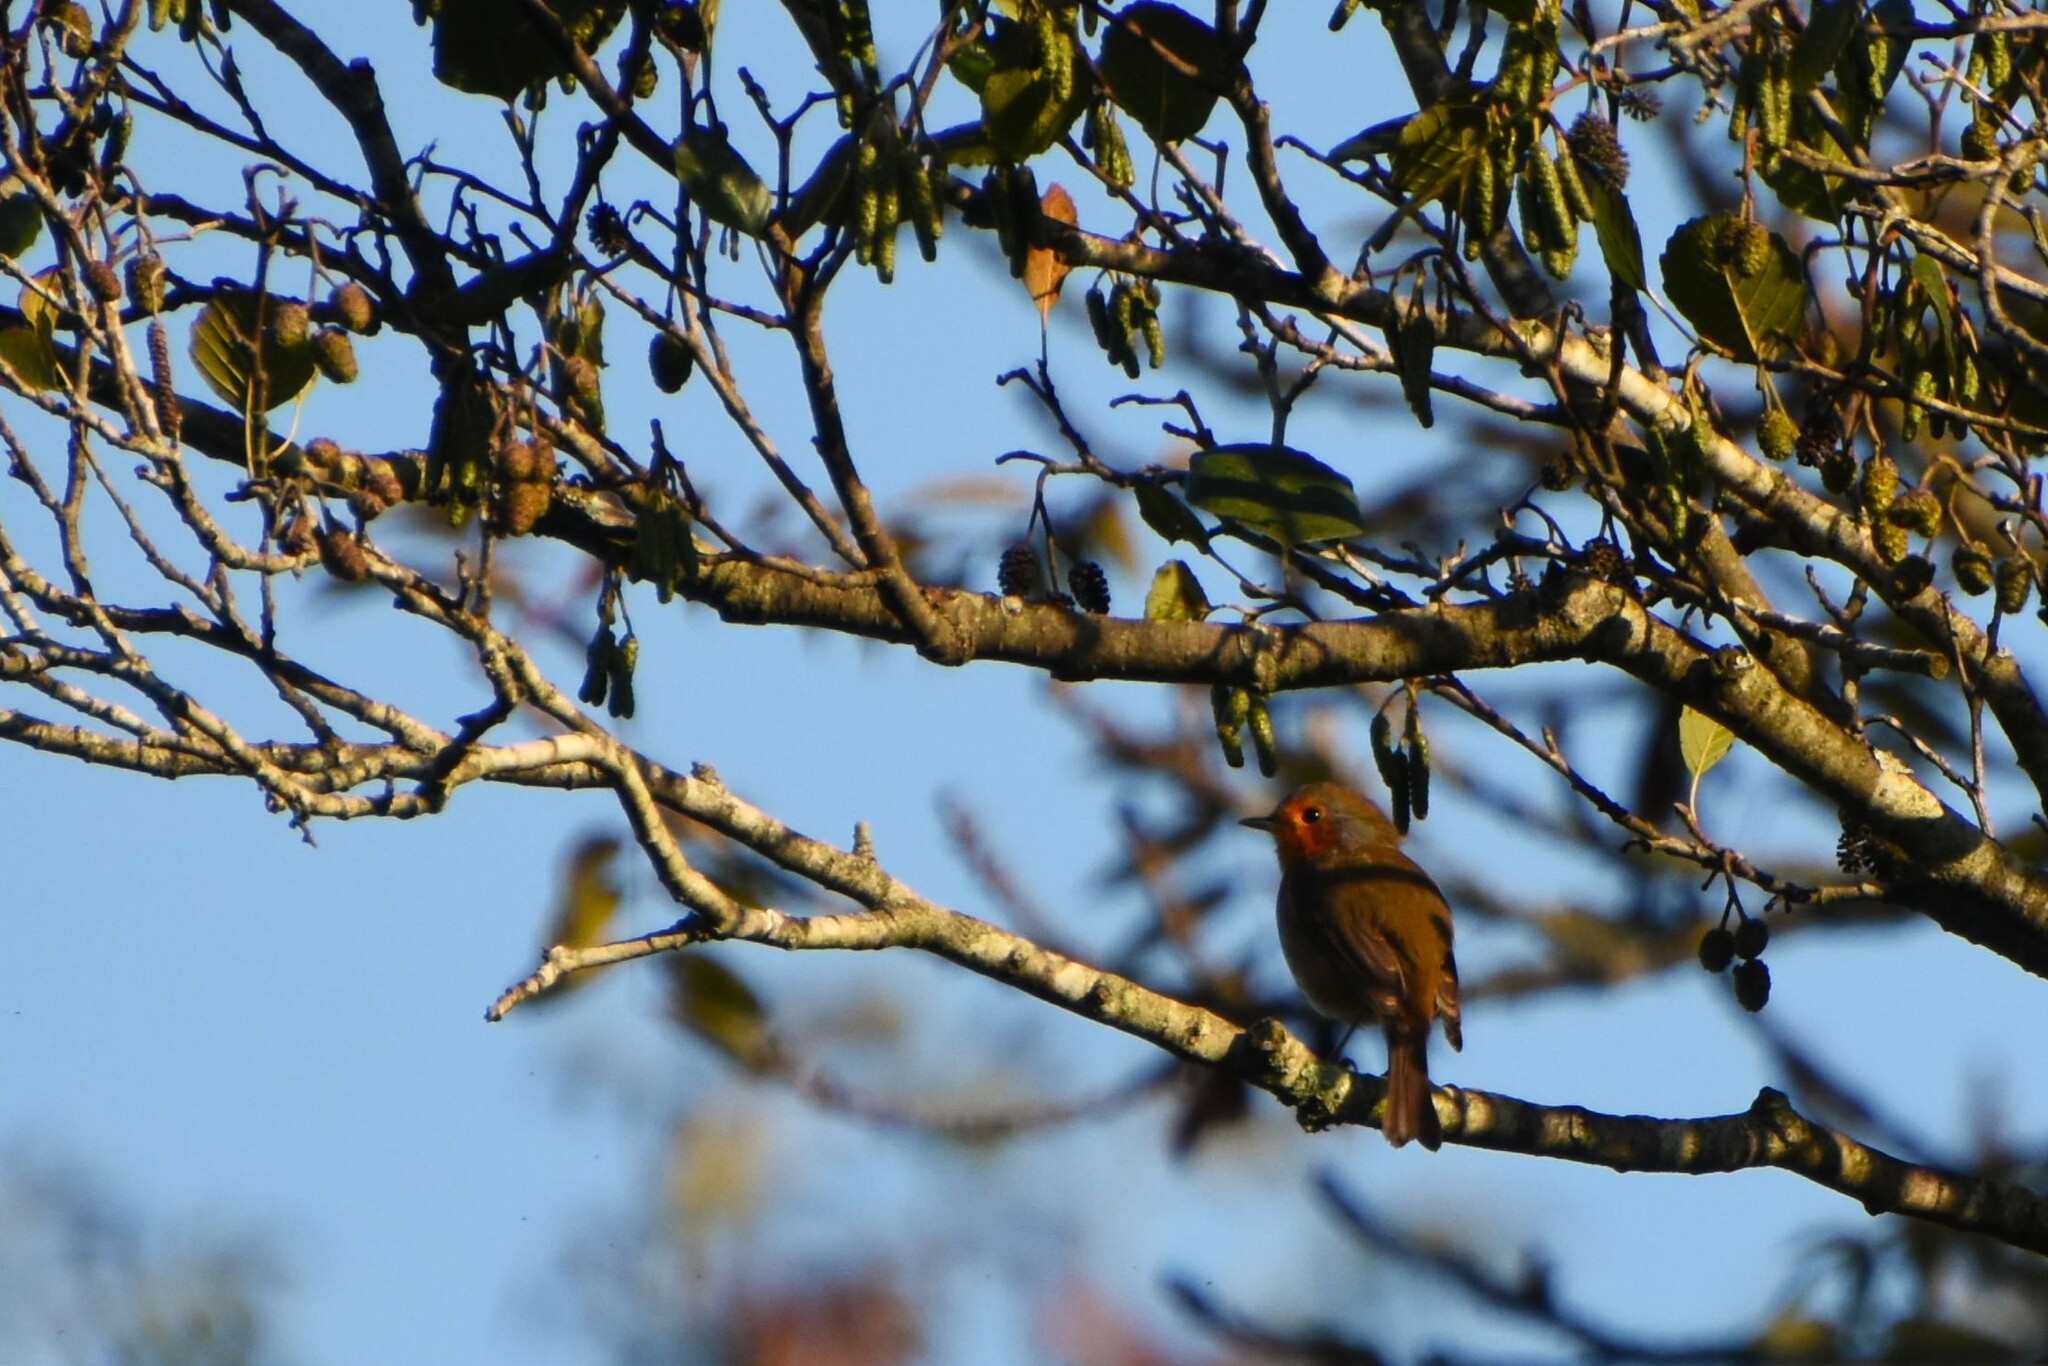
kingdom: Animalia
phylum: Chordata
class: Aves
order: Passeriformes
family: Muscicapidae
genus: Erithacus
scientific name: Erithacus rubecula
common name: European robin
